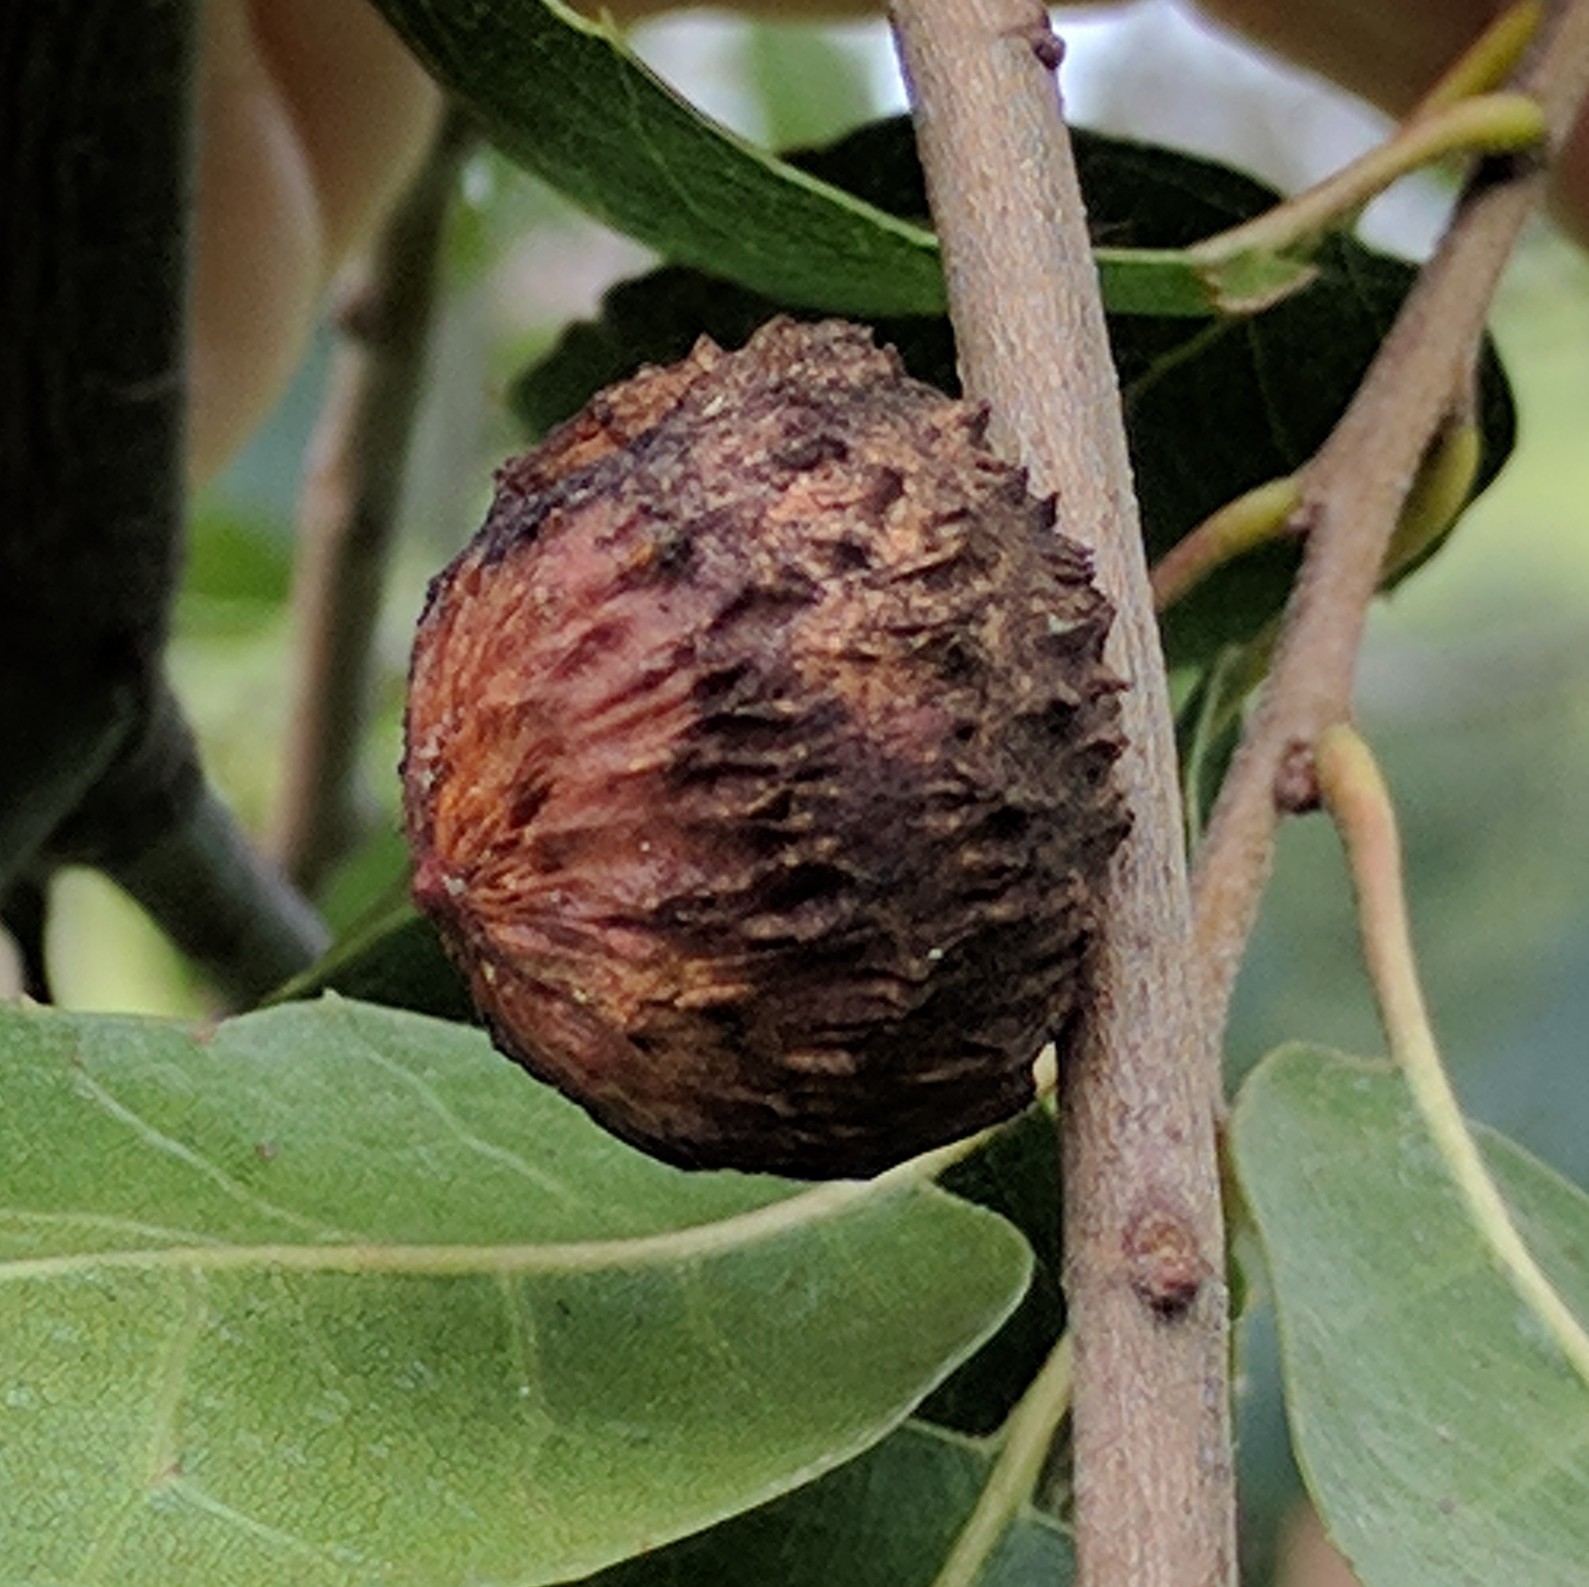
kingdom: Animalia
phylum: Arthropoda
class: Insecta
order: Hymenoptera
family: Cynipidae
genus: Amphibolips
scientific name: Amphibolips quercuspomiformis
